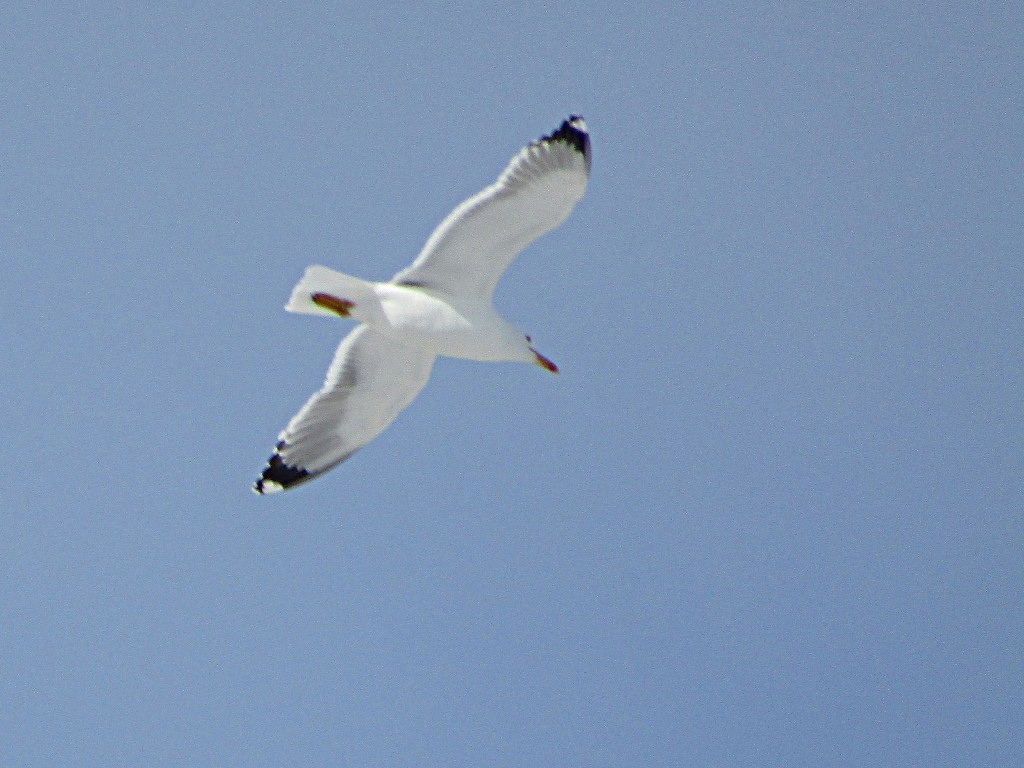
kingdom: Animalia
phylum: Chordata
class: Aves
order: Charadriiformes
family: Laridae
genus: Larus
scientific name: Larus fuscus
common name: Lesser black-backed gull
